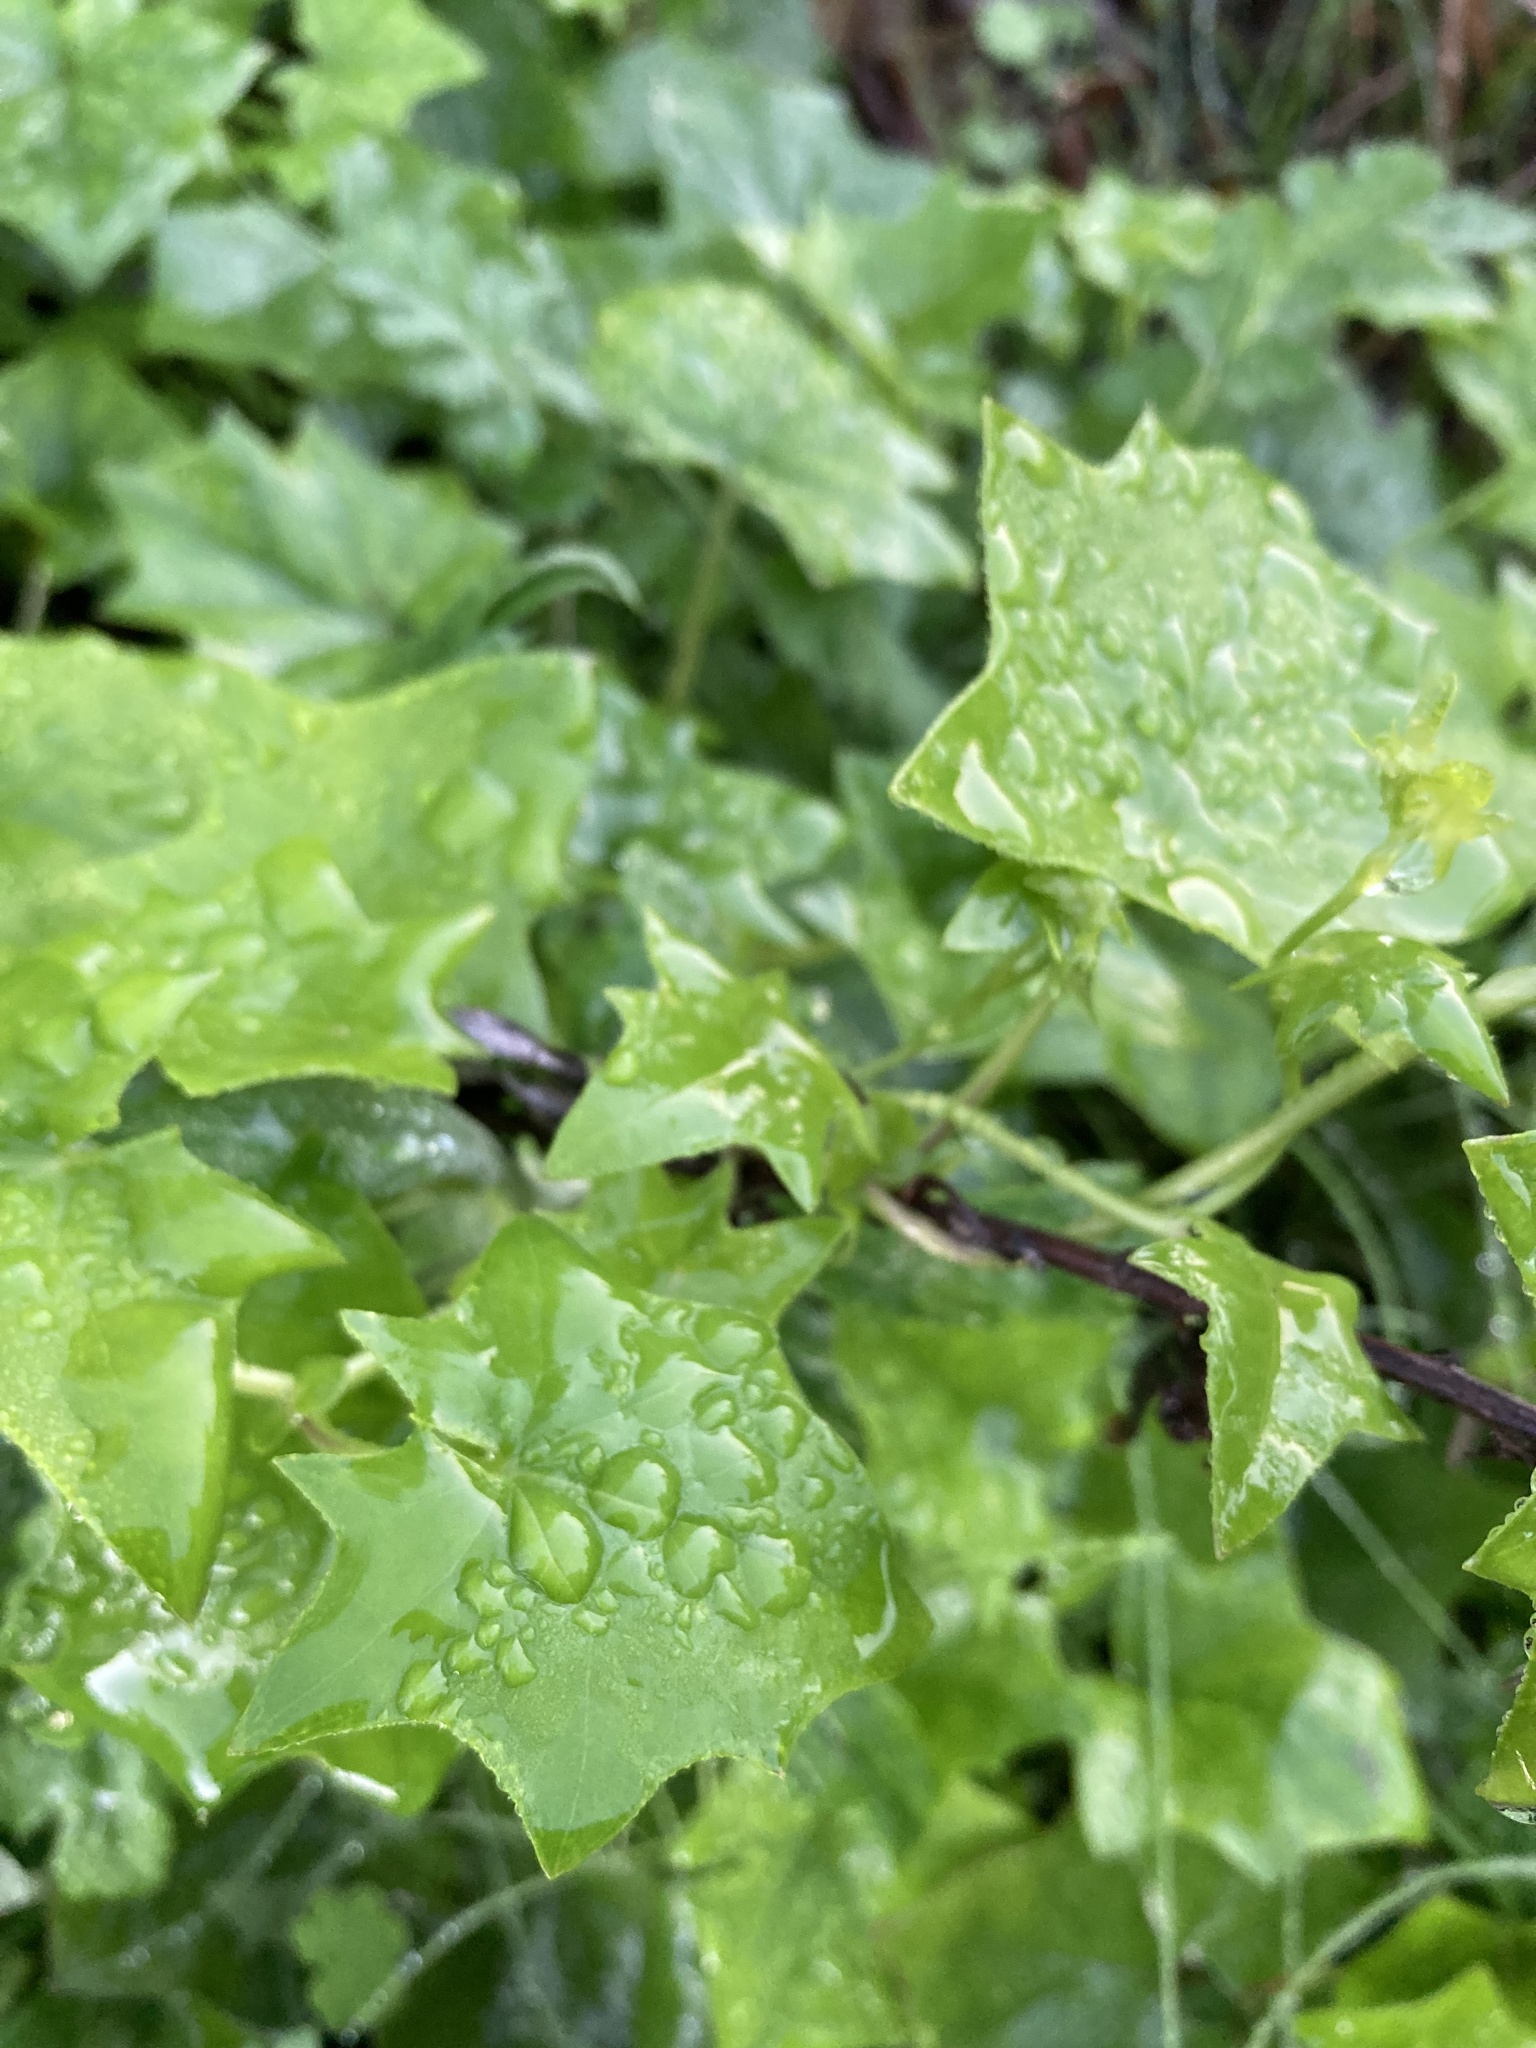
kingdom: Plantae
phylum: Tracheophyta
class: Magnoliopsida
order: Asterales
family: Asteraceae
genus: Delairea
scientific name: Delairea odorata
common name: Cape-ivy
